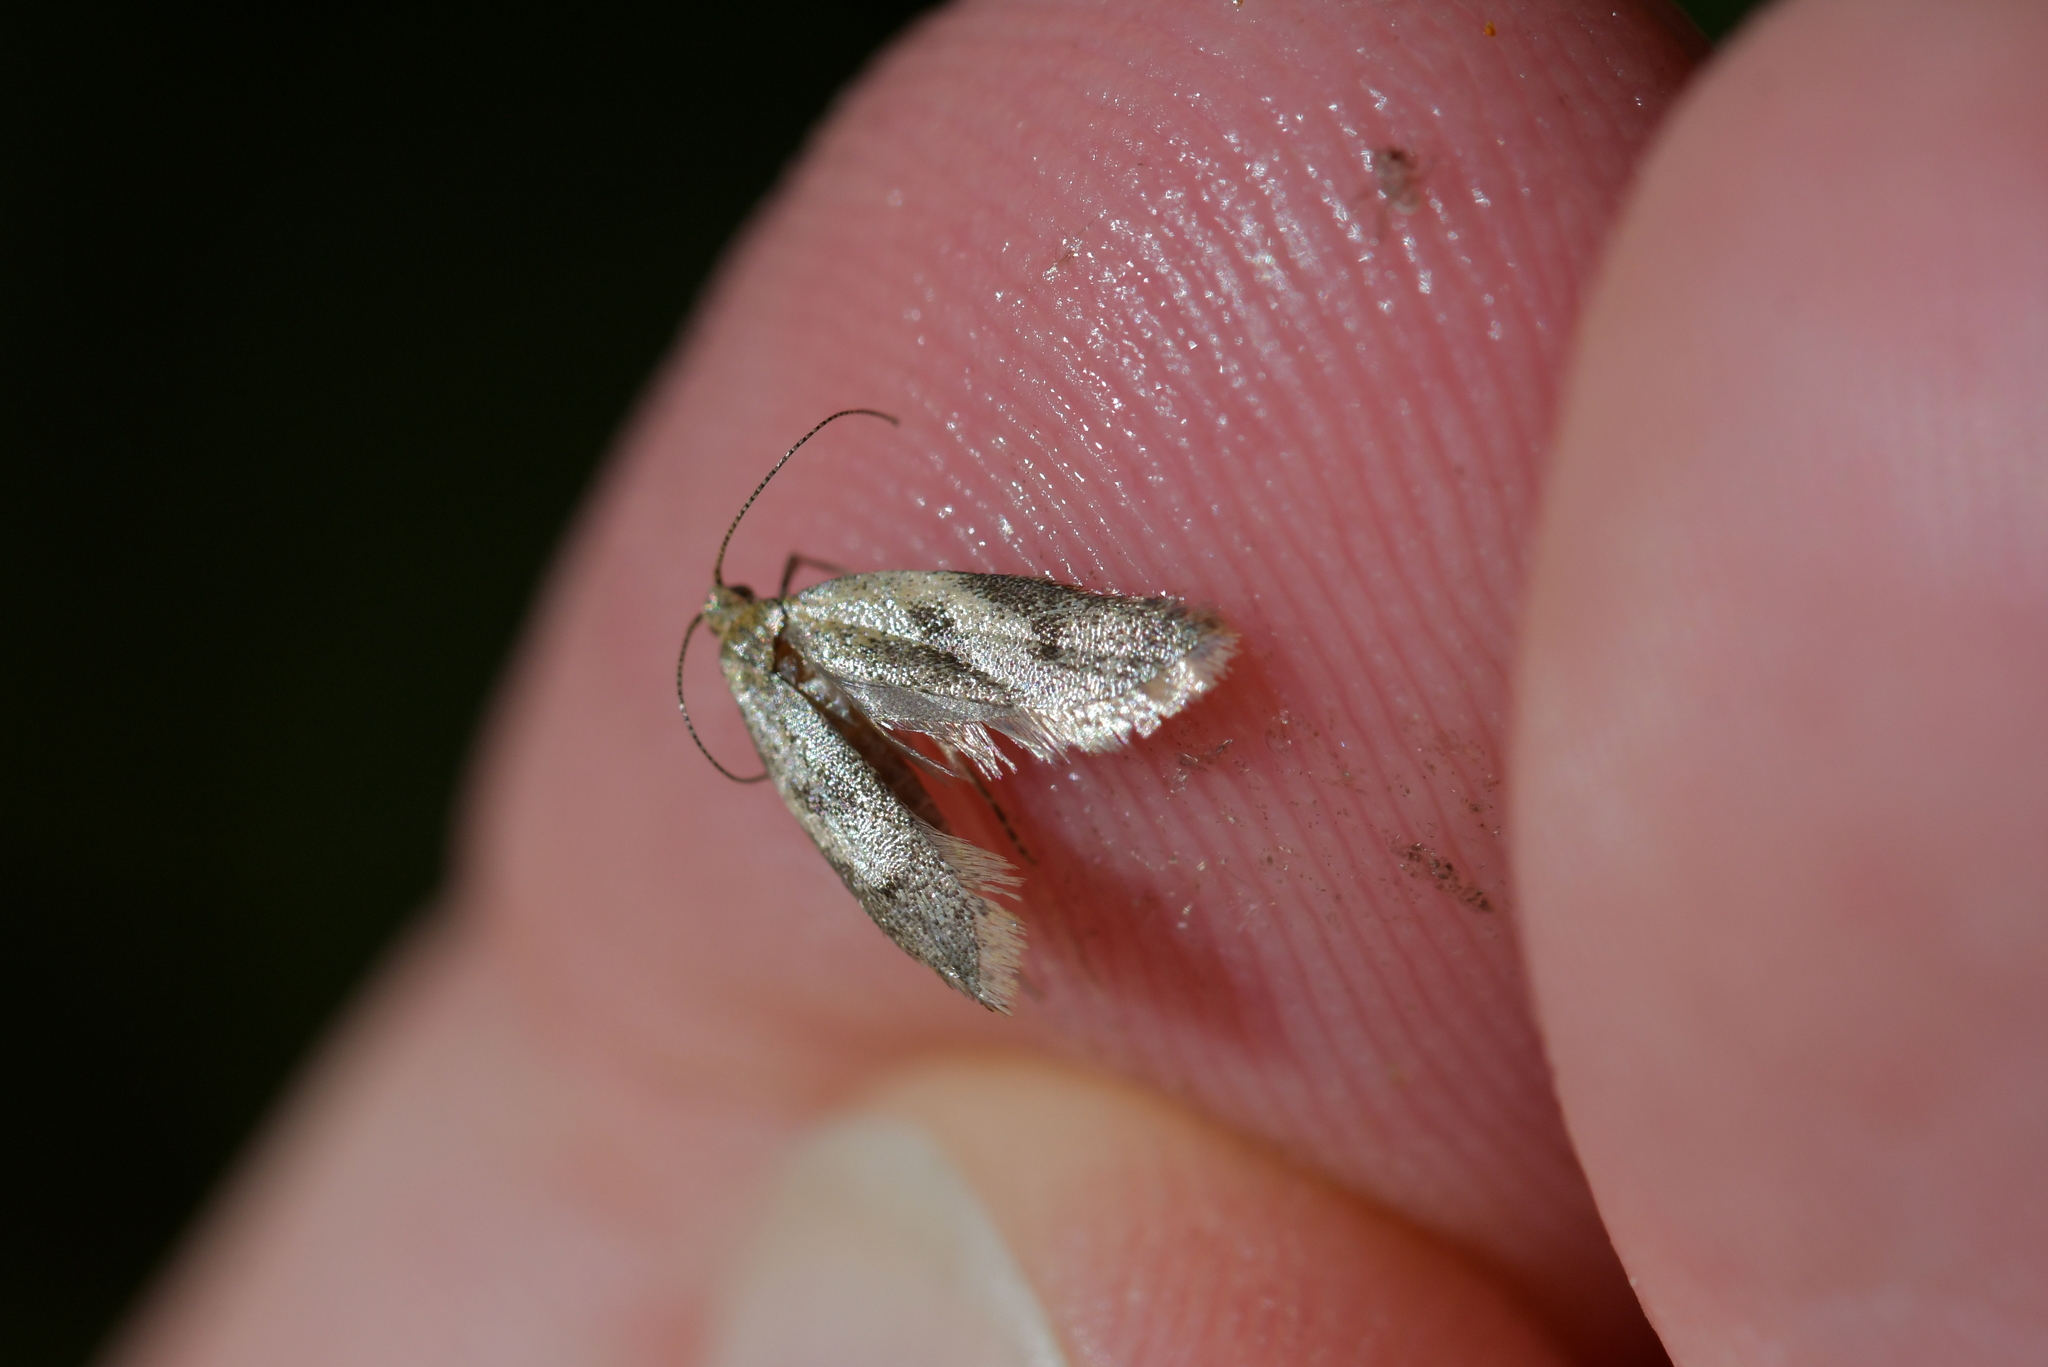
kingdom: Animalia
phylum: Arthropoda
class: Insecta
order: Lepidoptera
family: Oecophoridae
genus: Gymnobathra
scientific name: Gymnobathra tholodella
